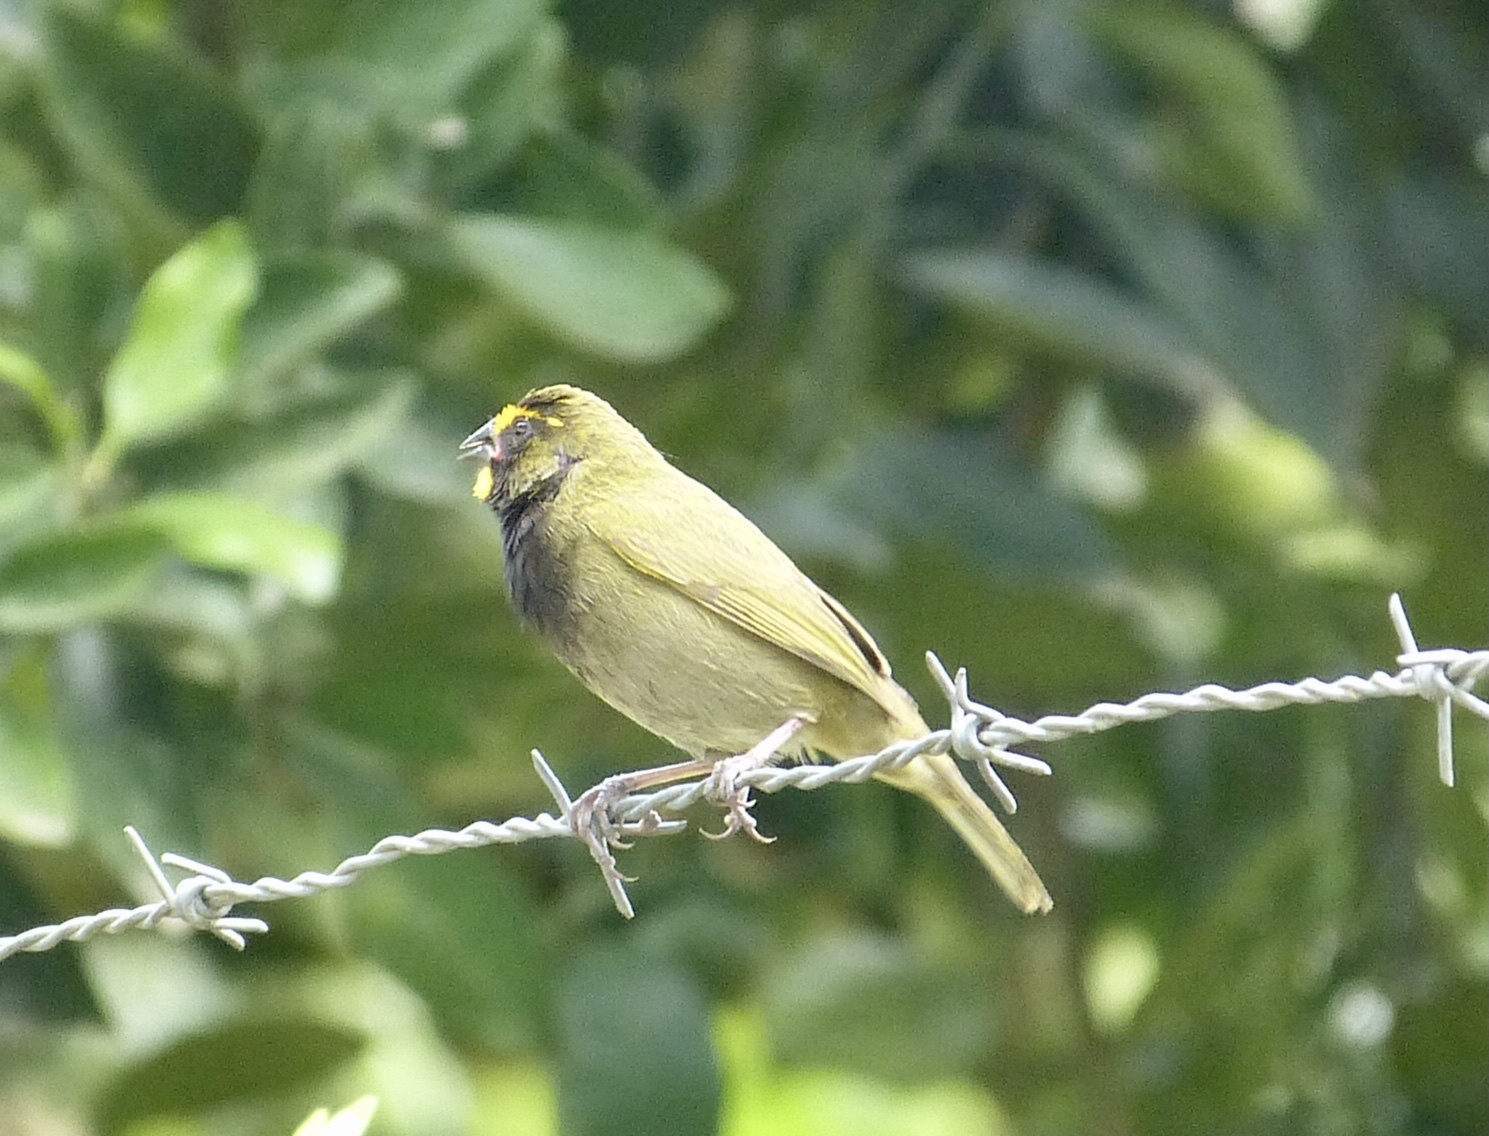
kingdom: Animalia
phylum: Chordata
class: Aves
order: Passeriformes
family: Thraupidae
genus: Tiaris
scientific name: Tiaris olivaceus
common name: Yellow-faced grassquit
